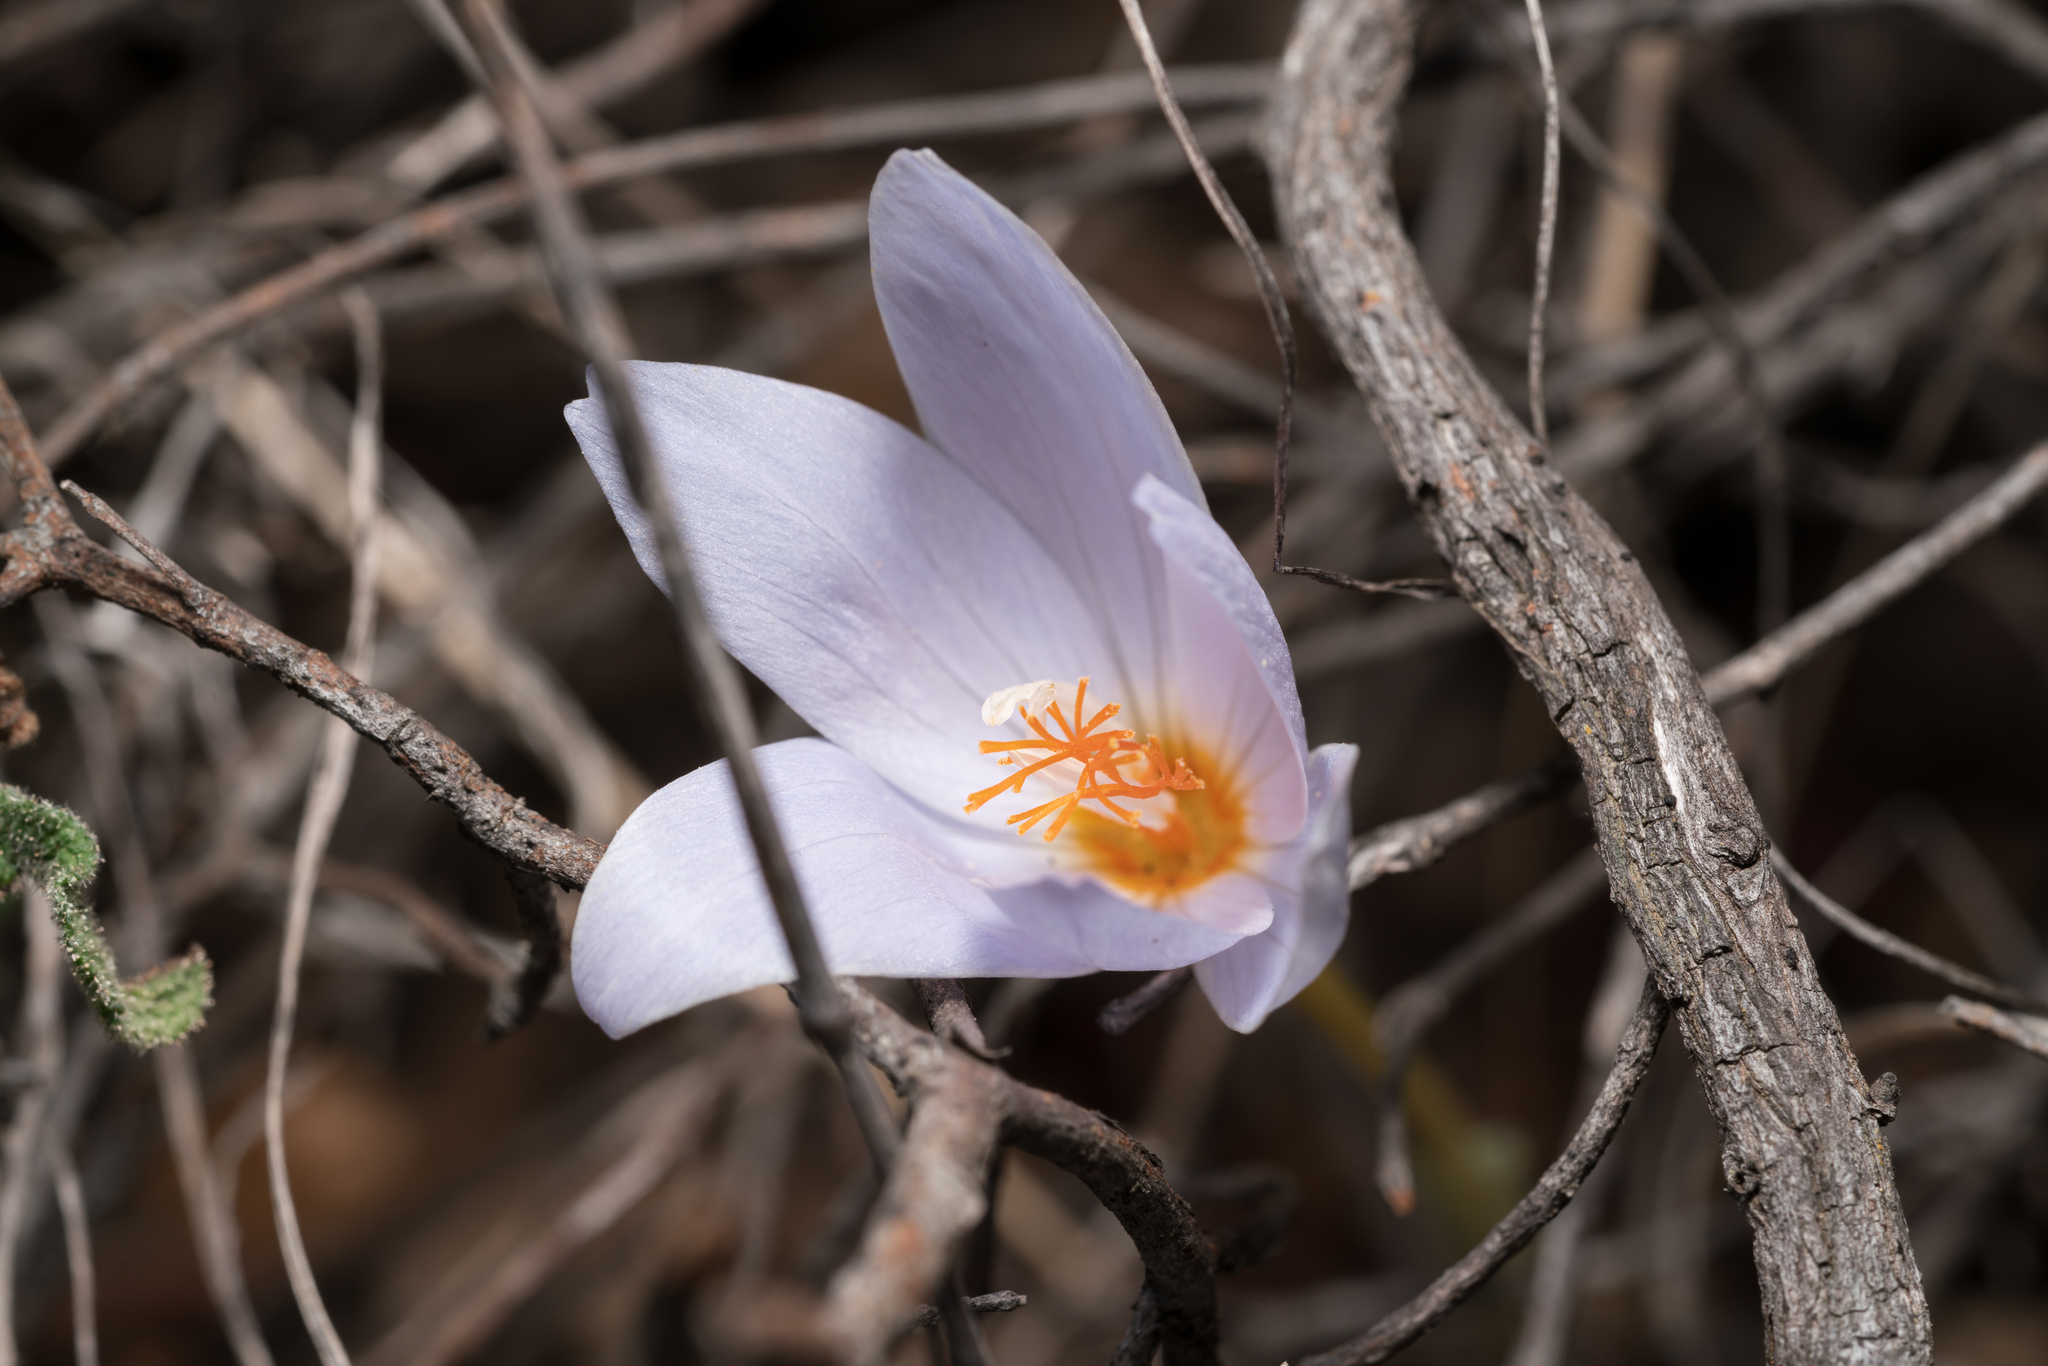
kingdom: Plantae
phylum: Tracheophyta
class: Liliopsida
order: Asparagales
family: Iridaceae
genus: Crocus
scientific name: Crocus tournefortii
